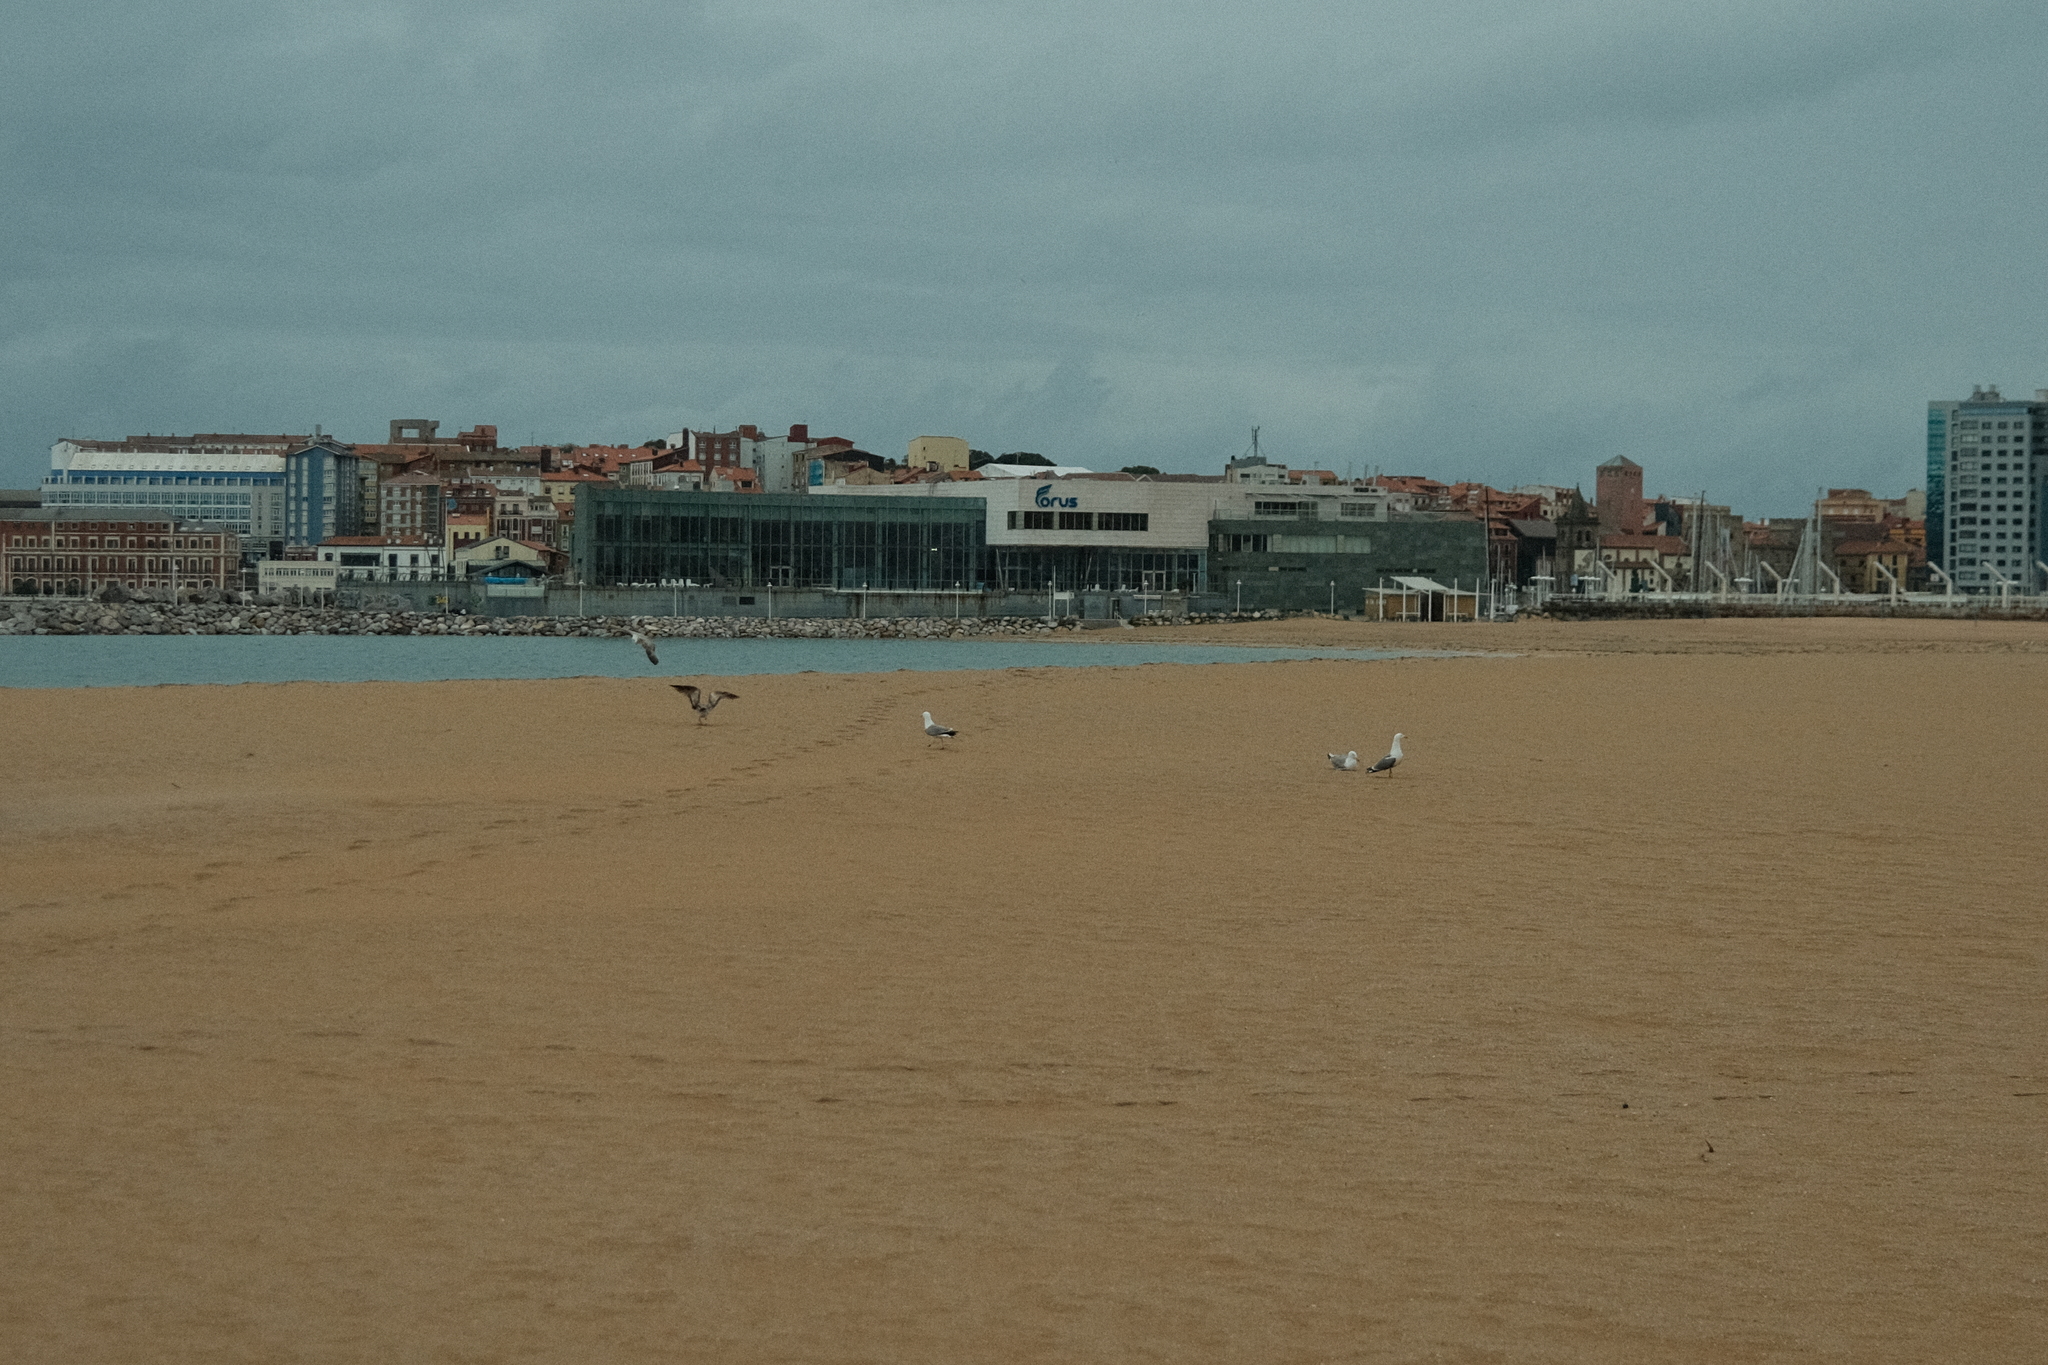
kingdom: Animalia
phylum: Chordata
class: Aves
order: Charadriiformes
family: Laridae
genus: Larus
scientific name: Larus michahellis
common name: Yellow-legged gull
